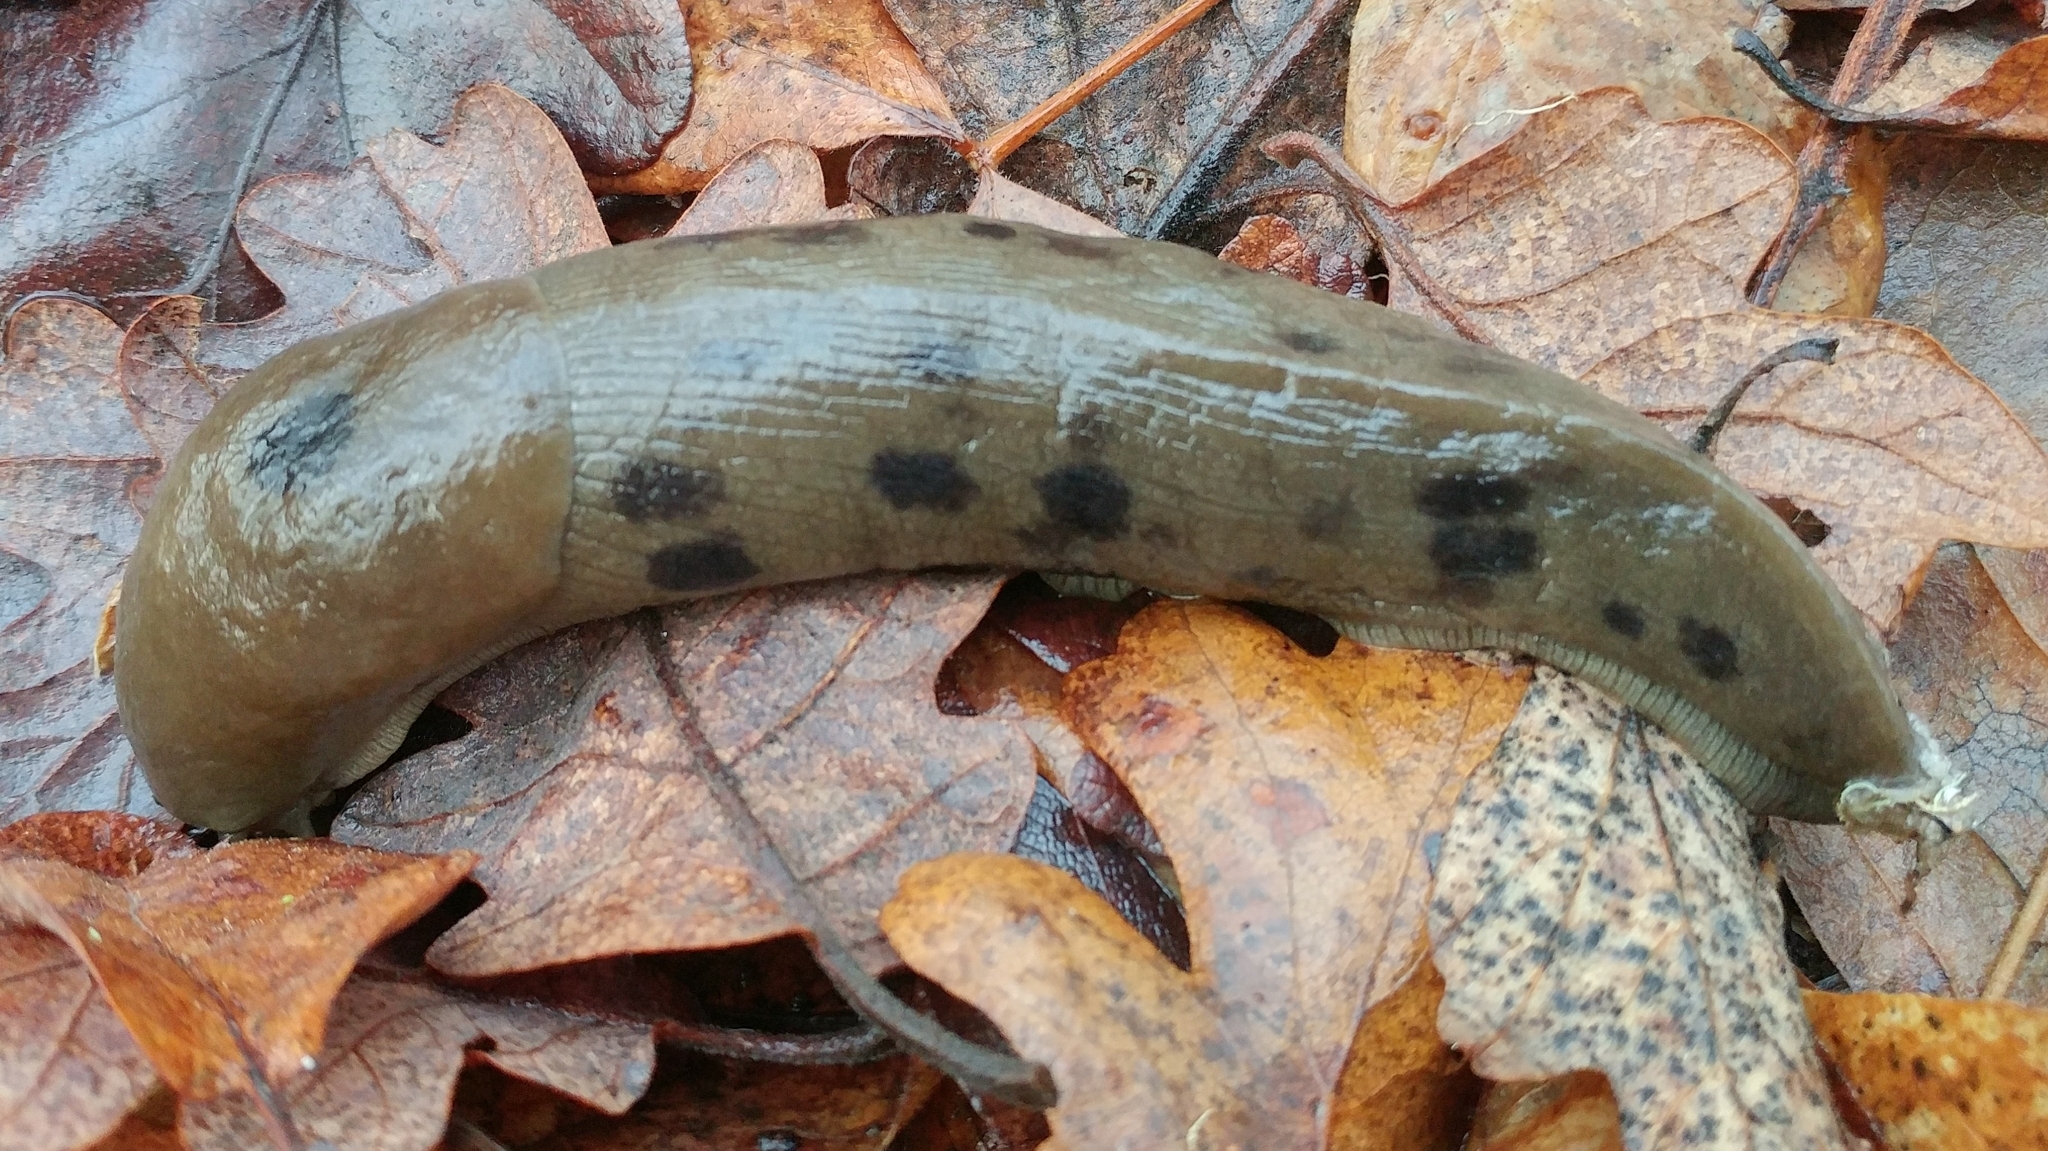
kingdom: Animalia
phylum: Mollusca
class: Gastropoda
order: Stylommatophora
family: Ariolimacidae
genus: Ariolimax
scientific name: Ariolimax columbianus
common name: Pacific banana slug
